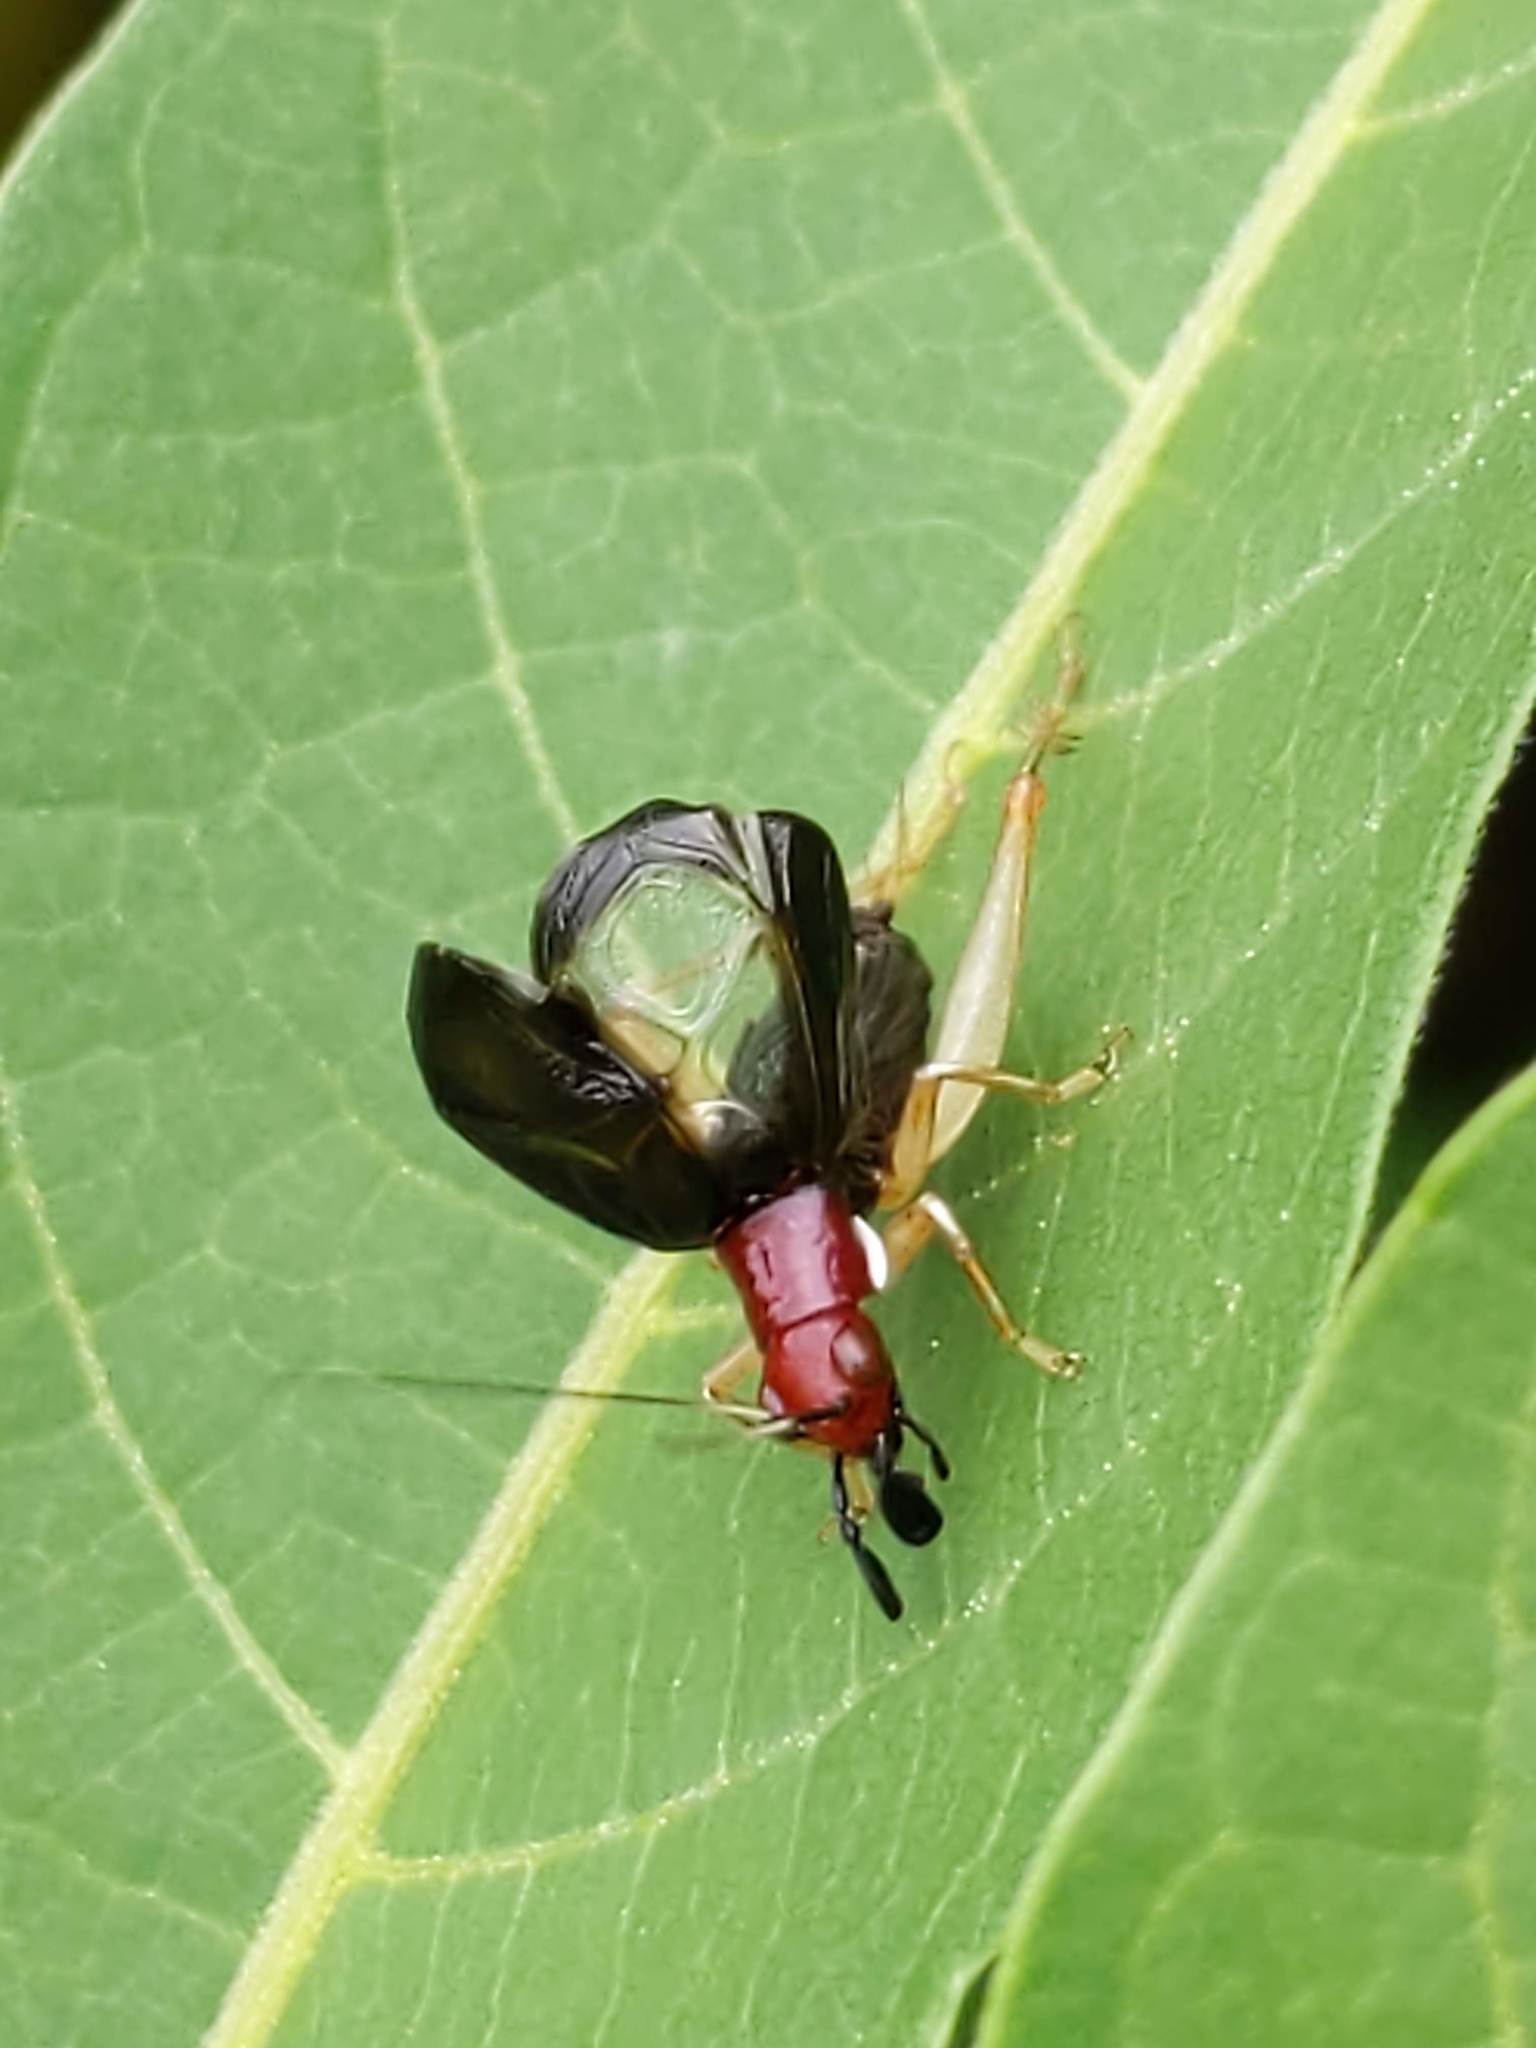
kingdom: Animalia
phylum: Arthropoda
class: Insecta
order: Orthoptera
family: Trigonidiidae
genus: Phyllopalpus
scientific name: Phyllopalpus pulchellus
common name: Handsome trig
